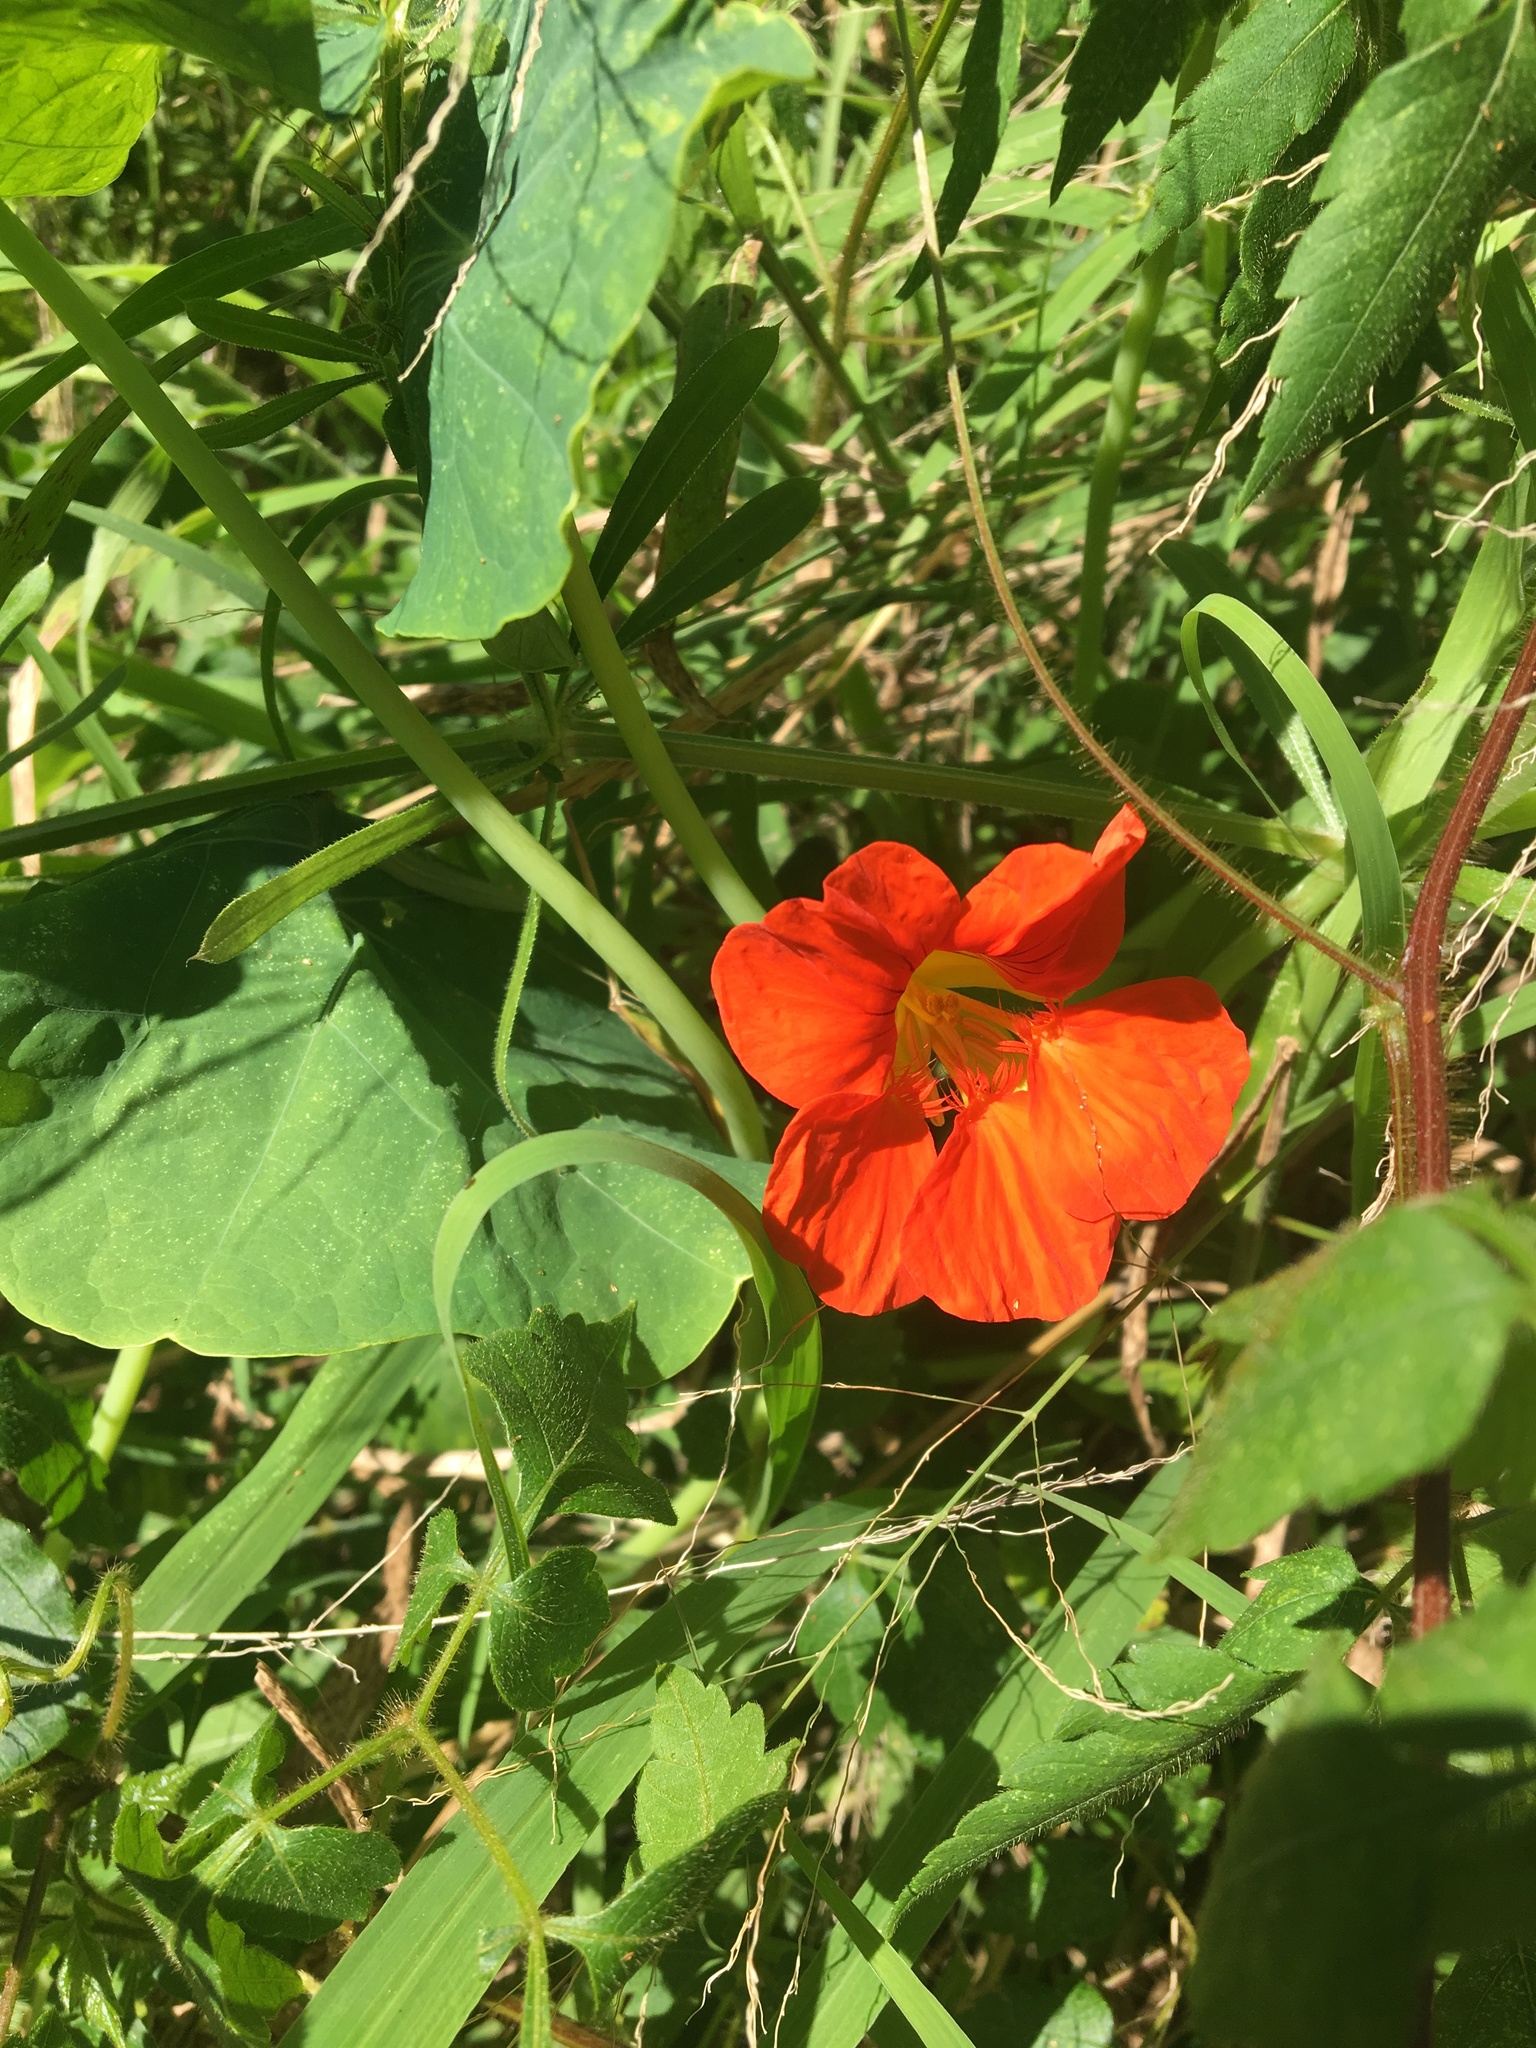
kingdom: Plantae
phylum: Tracheophyta
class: Magnoliopsida
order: Brassicales
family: Tropaeolaceae
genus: Tropaeolum
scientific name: Tropaeolum majus
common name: Nasturtium
